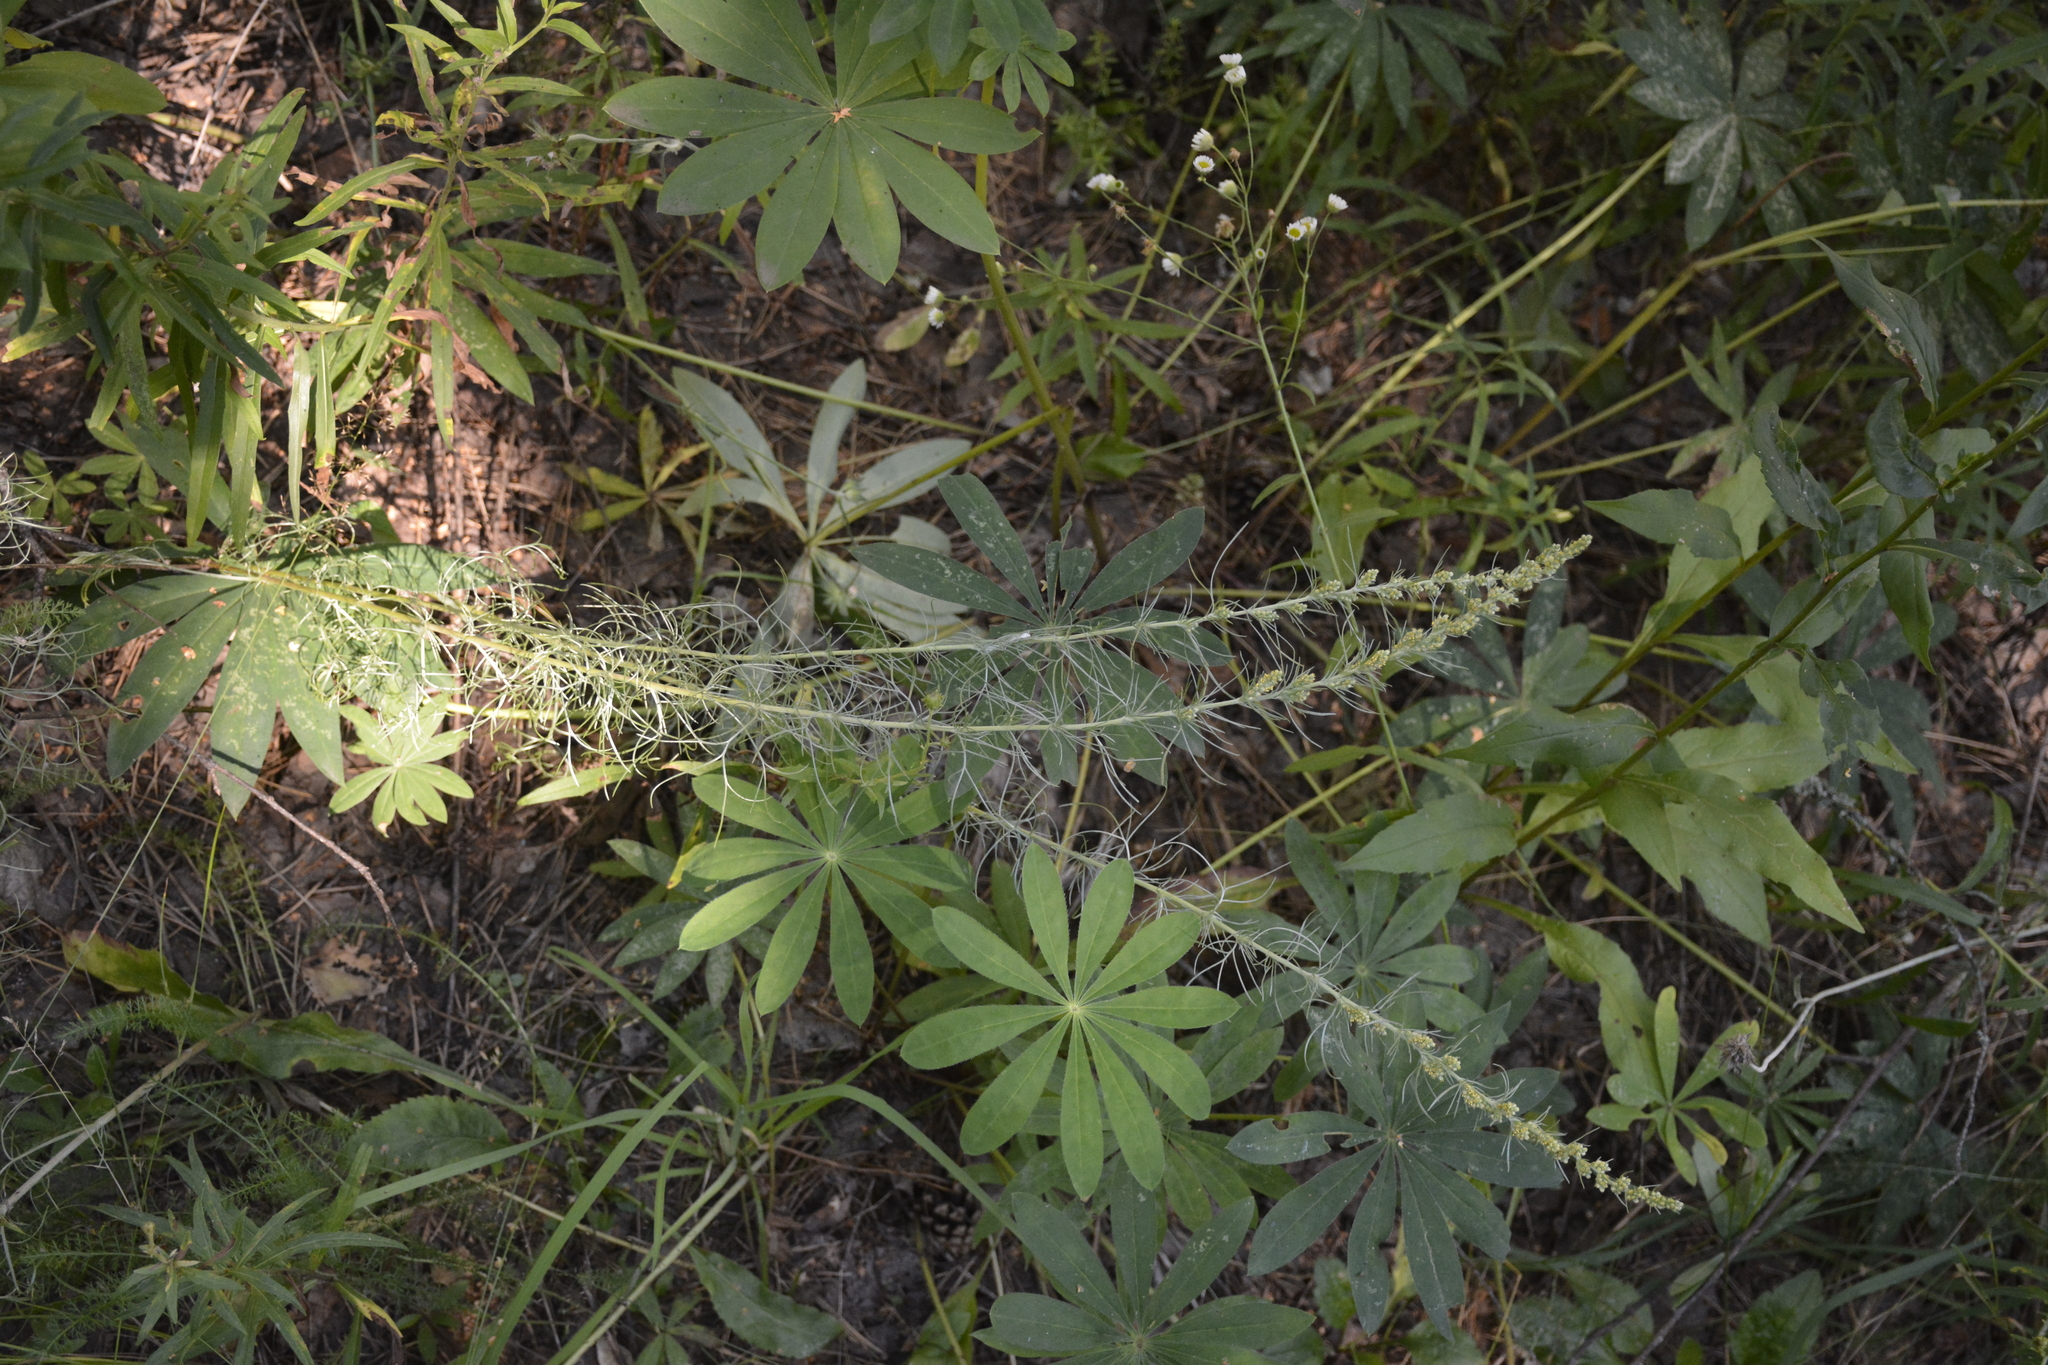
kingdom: Plantae
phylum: Tracheophyta
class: Magnoliopsida
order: Asterales
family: Asteraceae
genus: Artemisia
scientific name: Artemisia campestris
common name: Field wormwood
